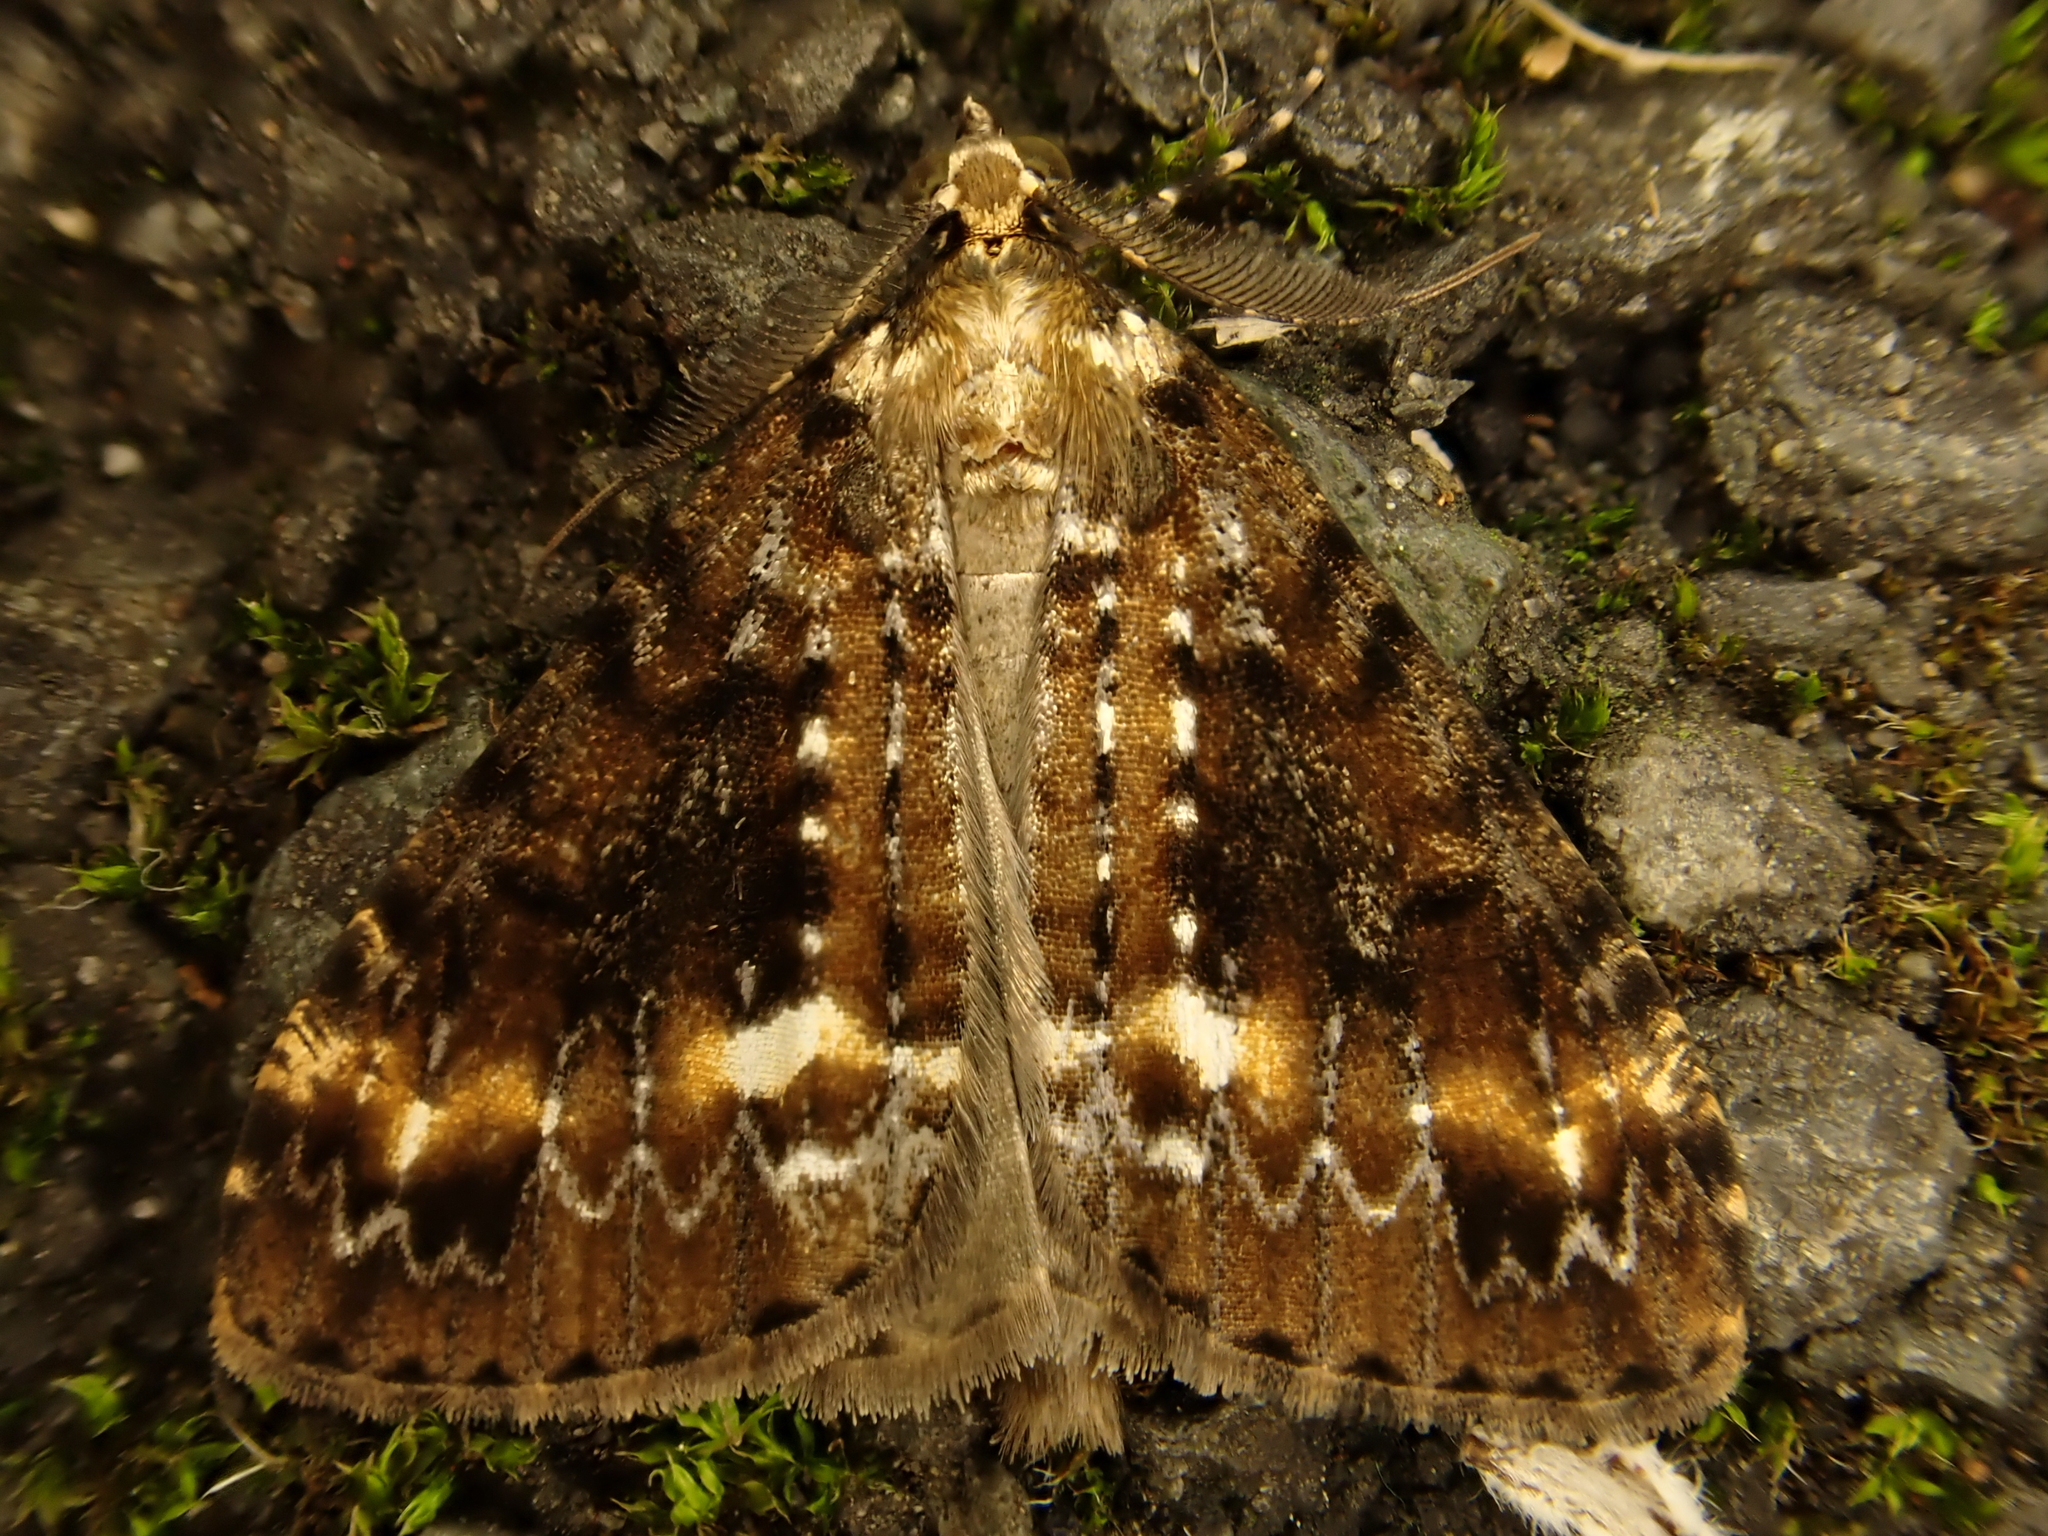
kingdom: Animalia
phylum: Arthropoda
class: Insecta
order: Lepidoptera
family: Geometridae
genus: Pseudocoremia
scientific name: Pseudocoremia leucelaea
